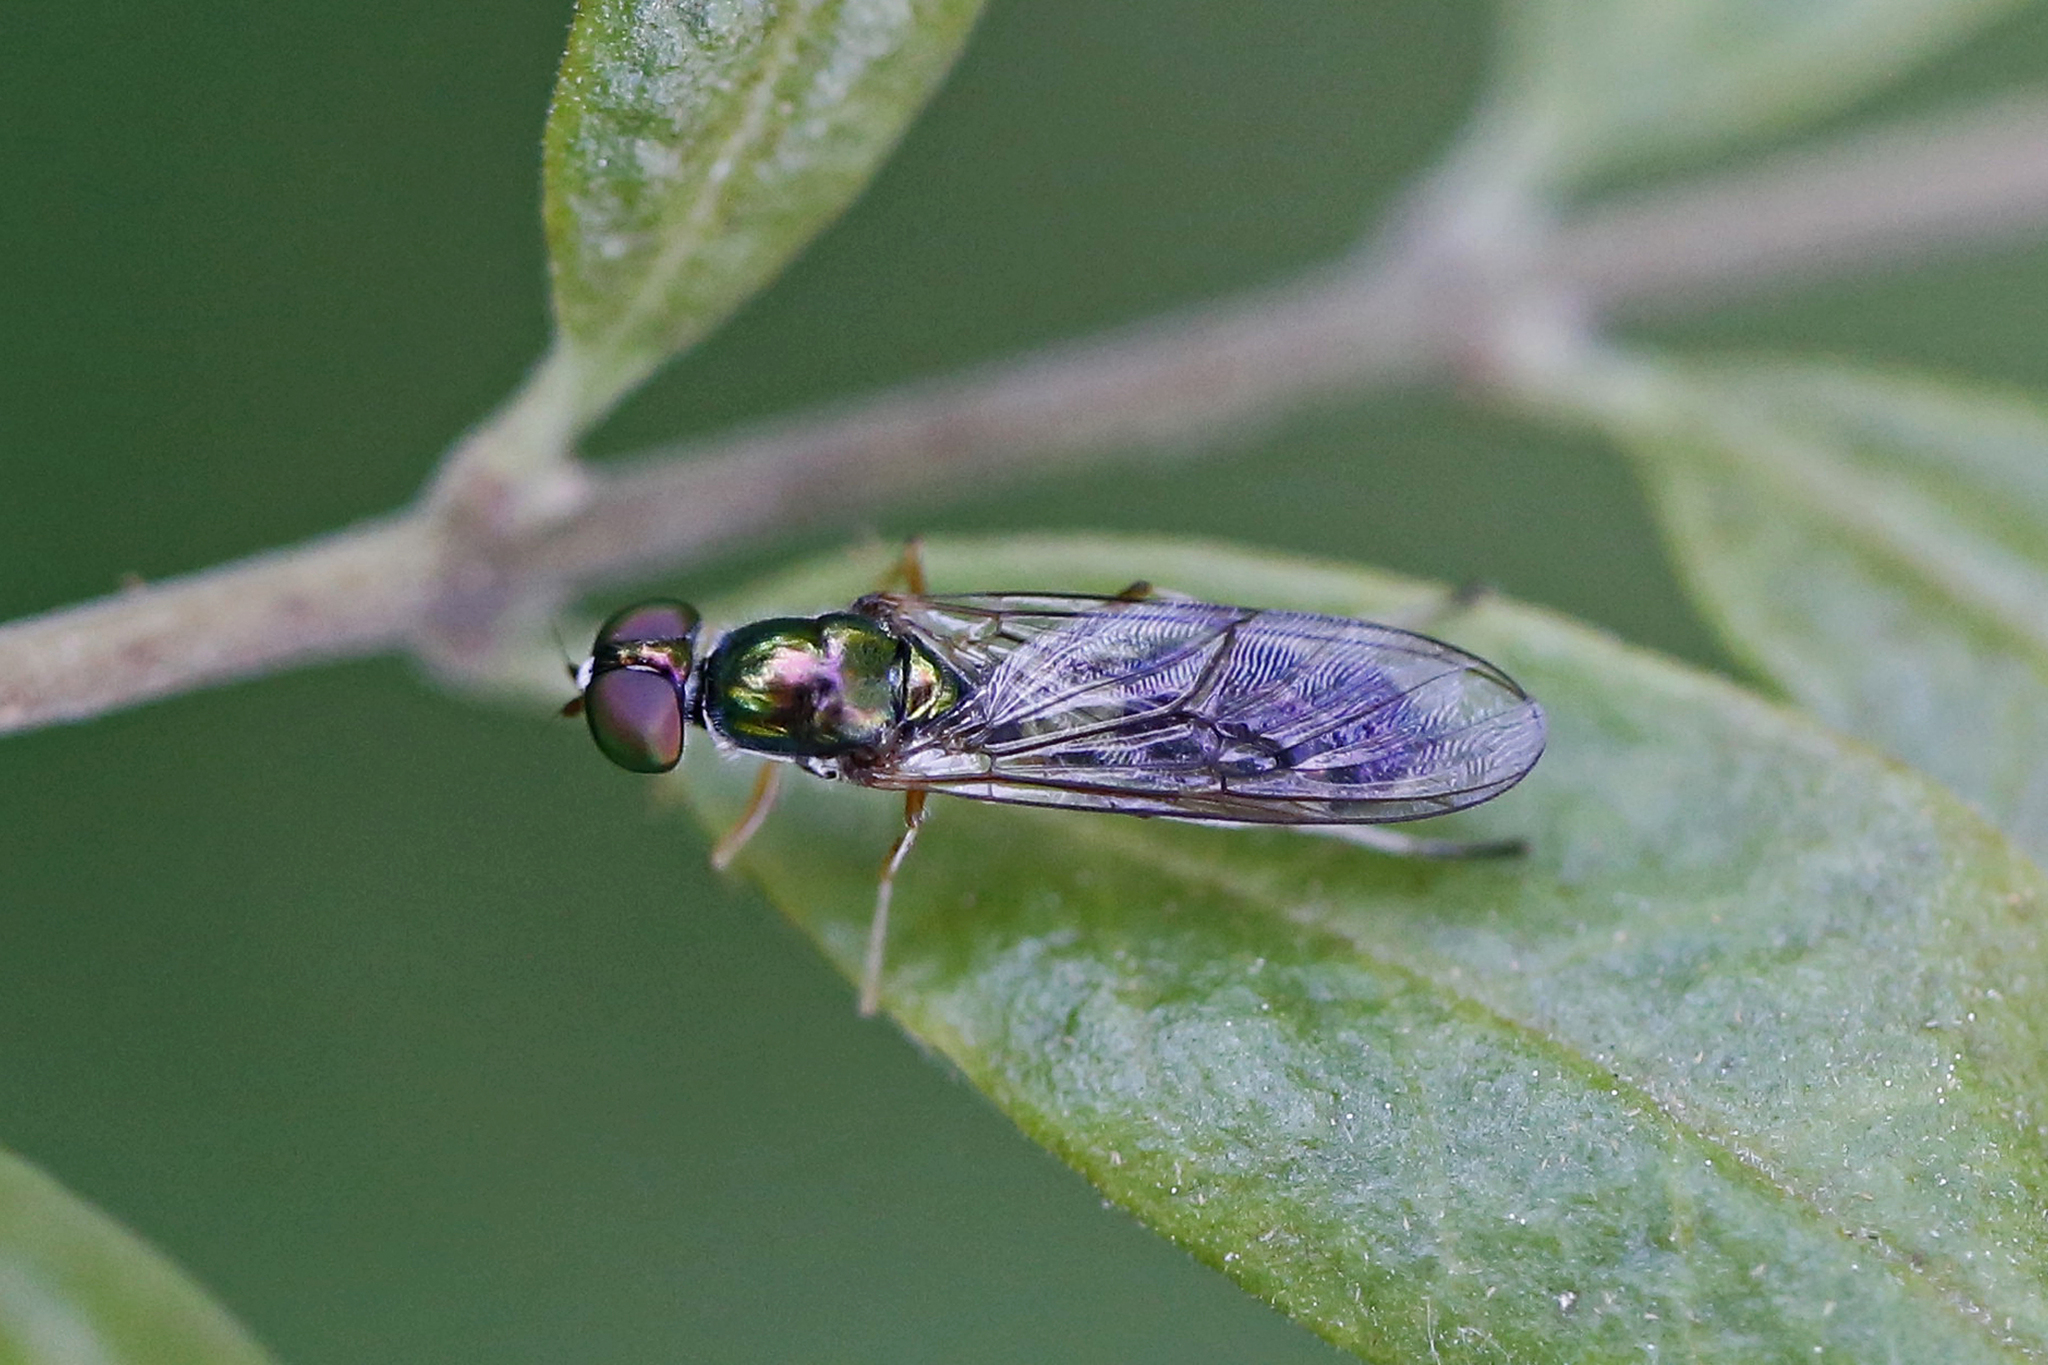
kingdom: Animalia
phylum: Arthropoda
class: Insecta
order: Diptera
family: Stratiomyidae
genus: Sargus
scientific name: Sargus fasciatus
